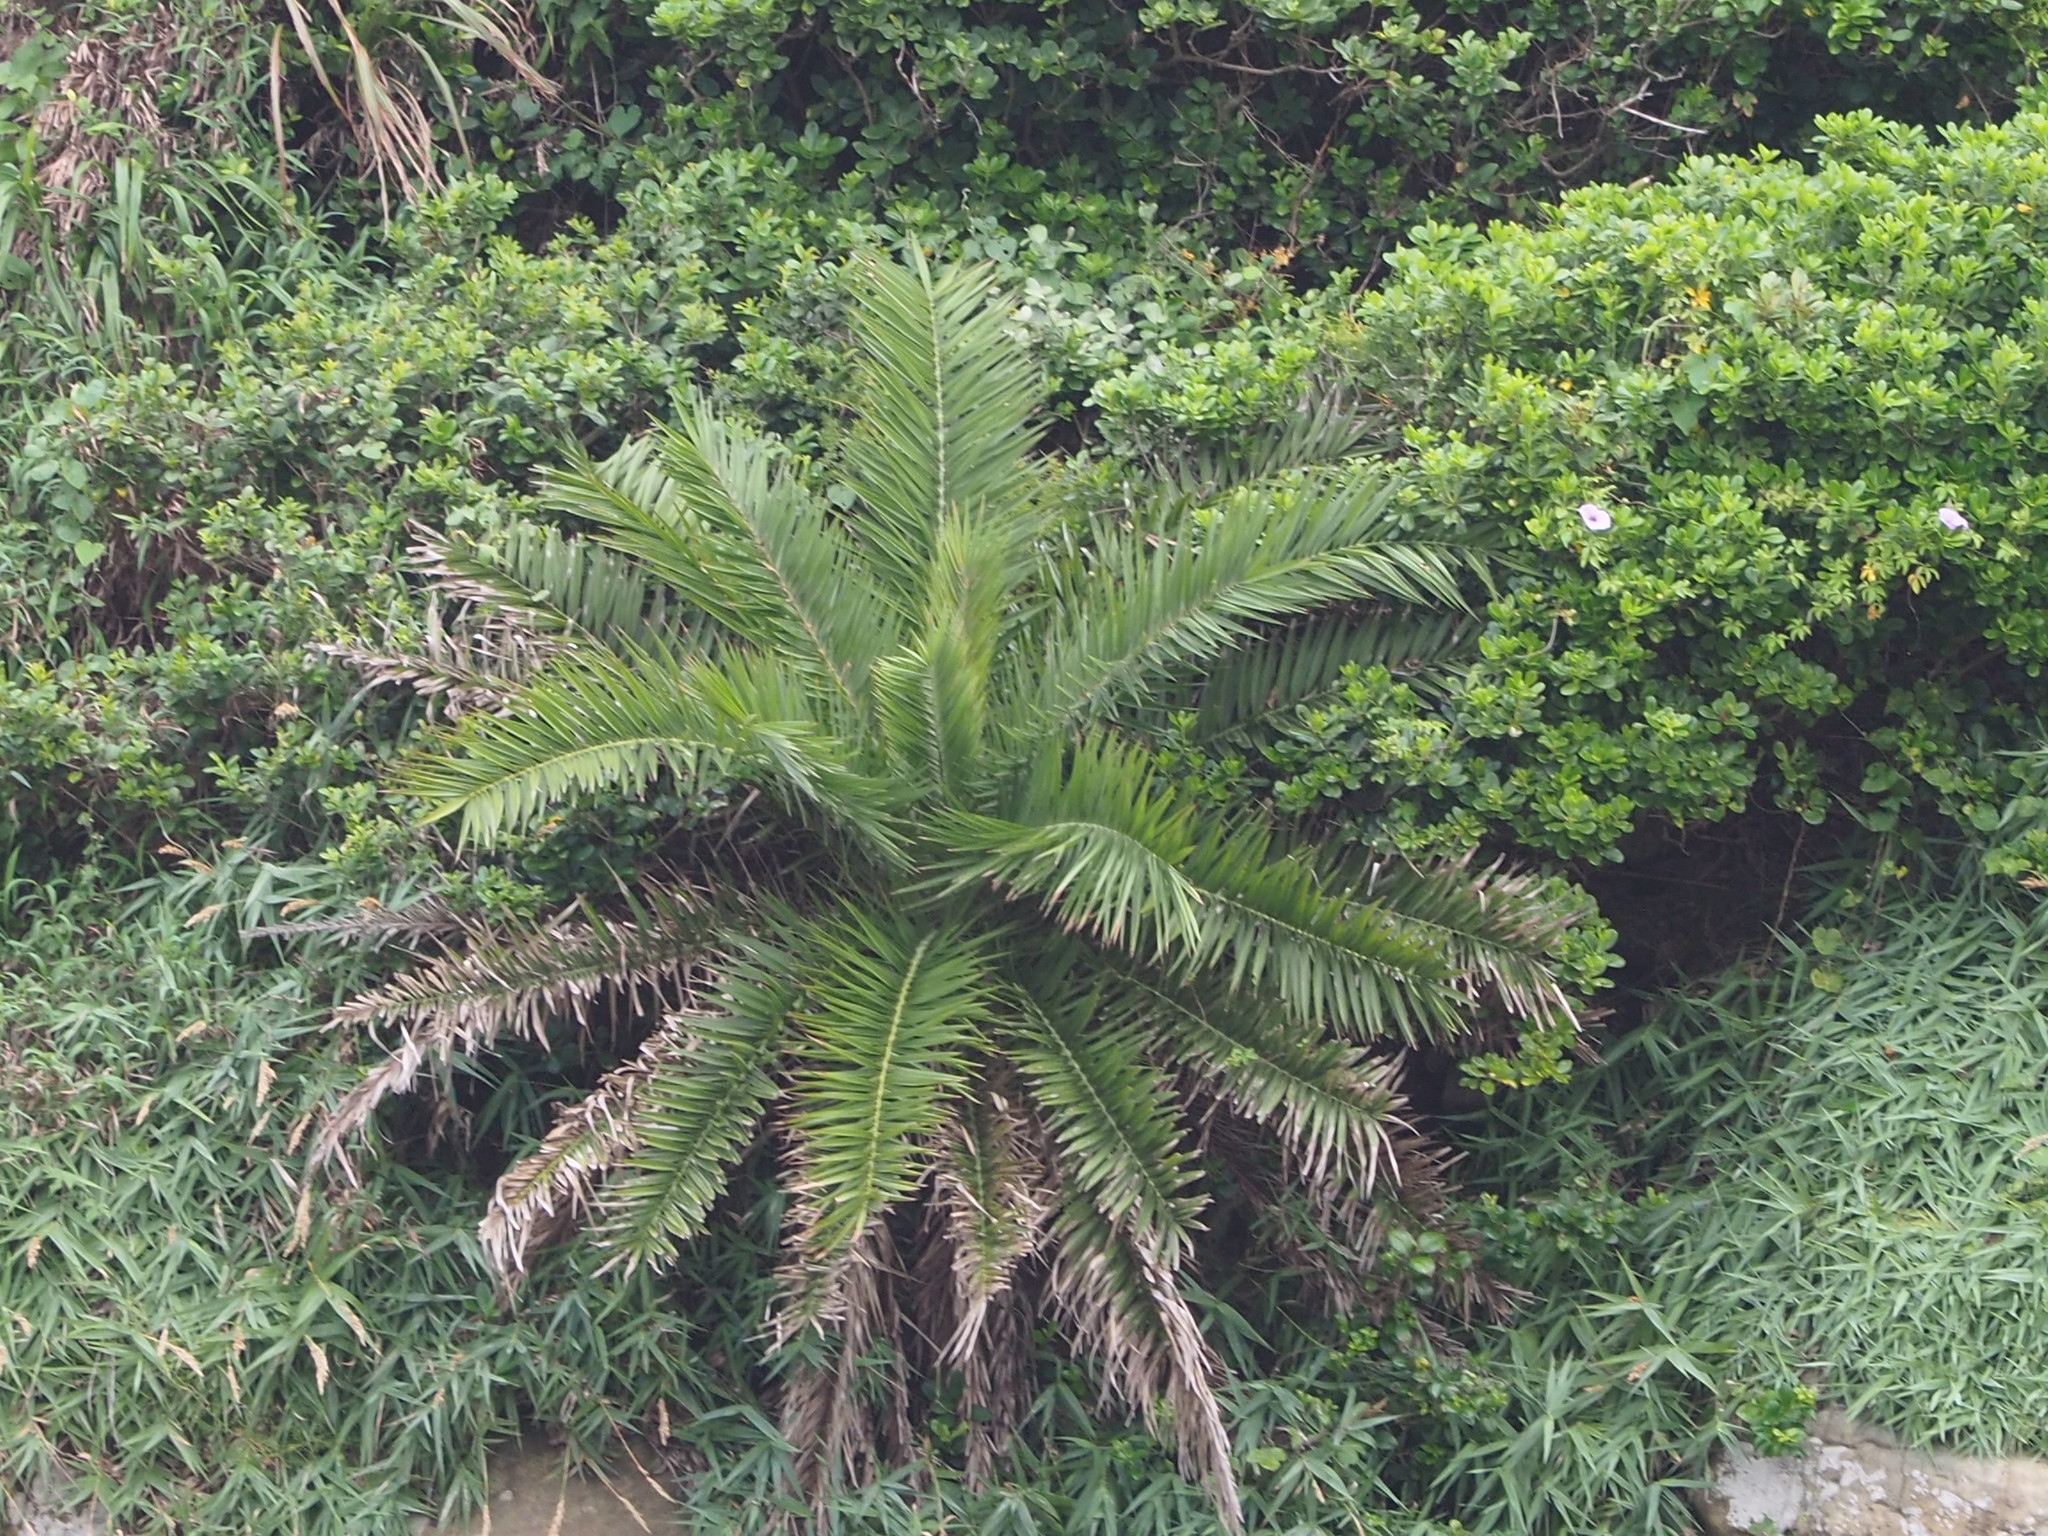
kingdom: Plantae
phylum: Tracheophyta
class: Liliopsida
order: Arecales
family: Arecaceae
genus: Phoenix
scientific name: Phoenix loureiroi
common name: Loureiro's palm
